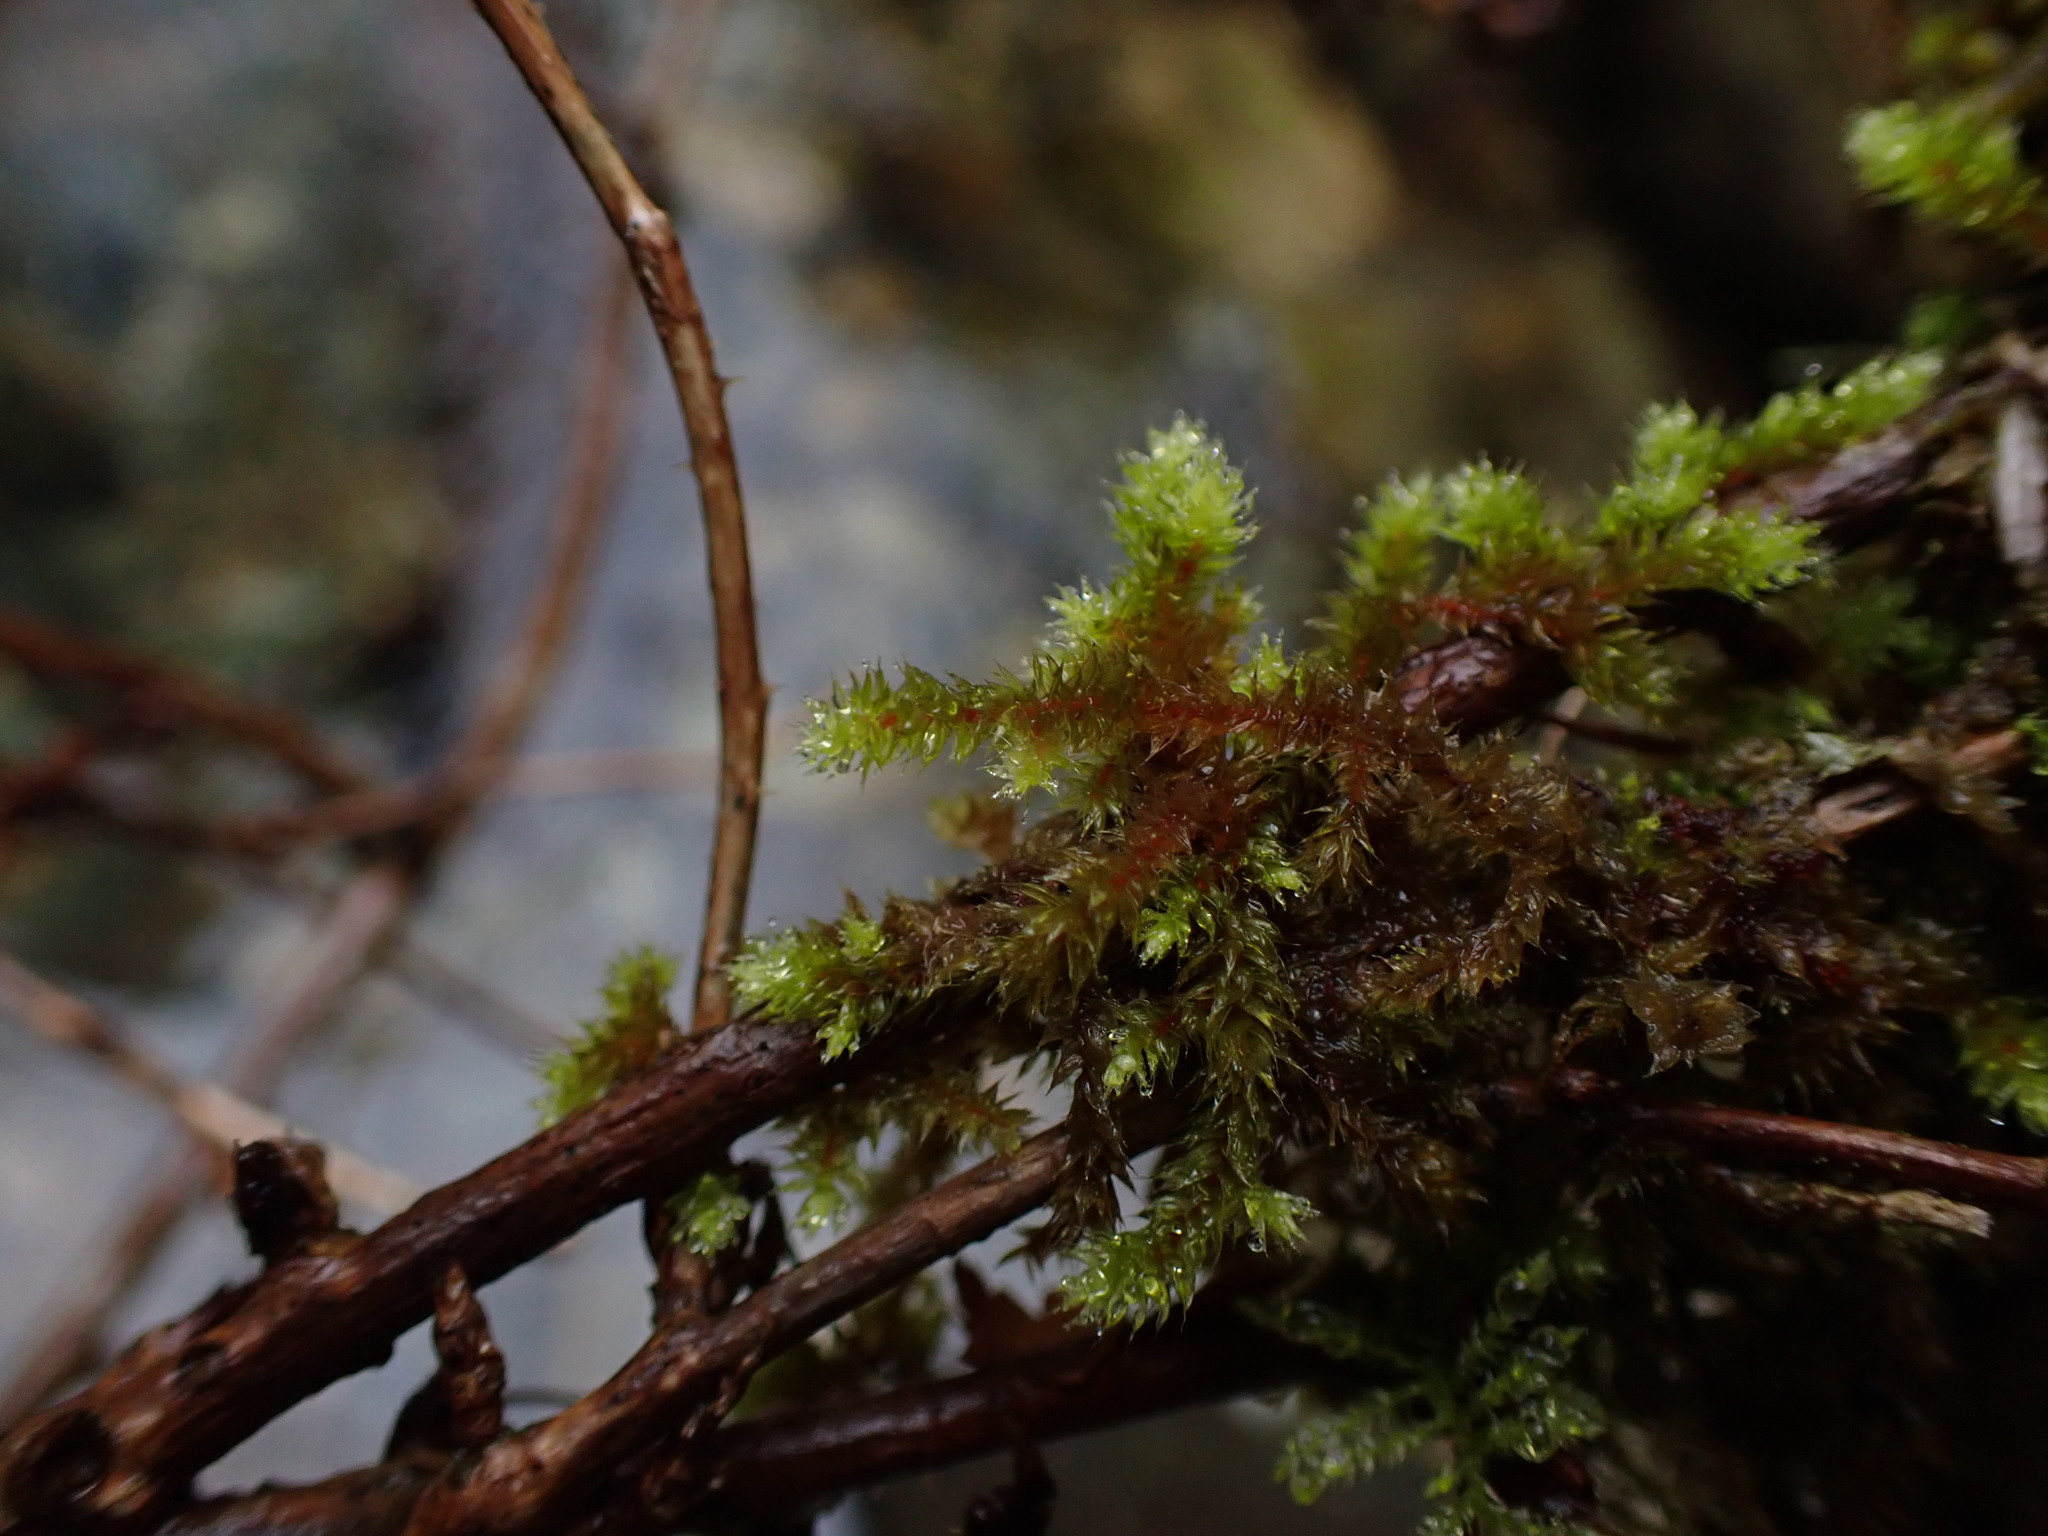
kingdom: Plantae
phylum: Bryophyta
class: Bryopsida
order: Hypnales
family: Antitrichiaceae
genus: Antitrichia
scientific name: Antitrichia curtipendula
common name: Pendulous wing-moss
